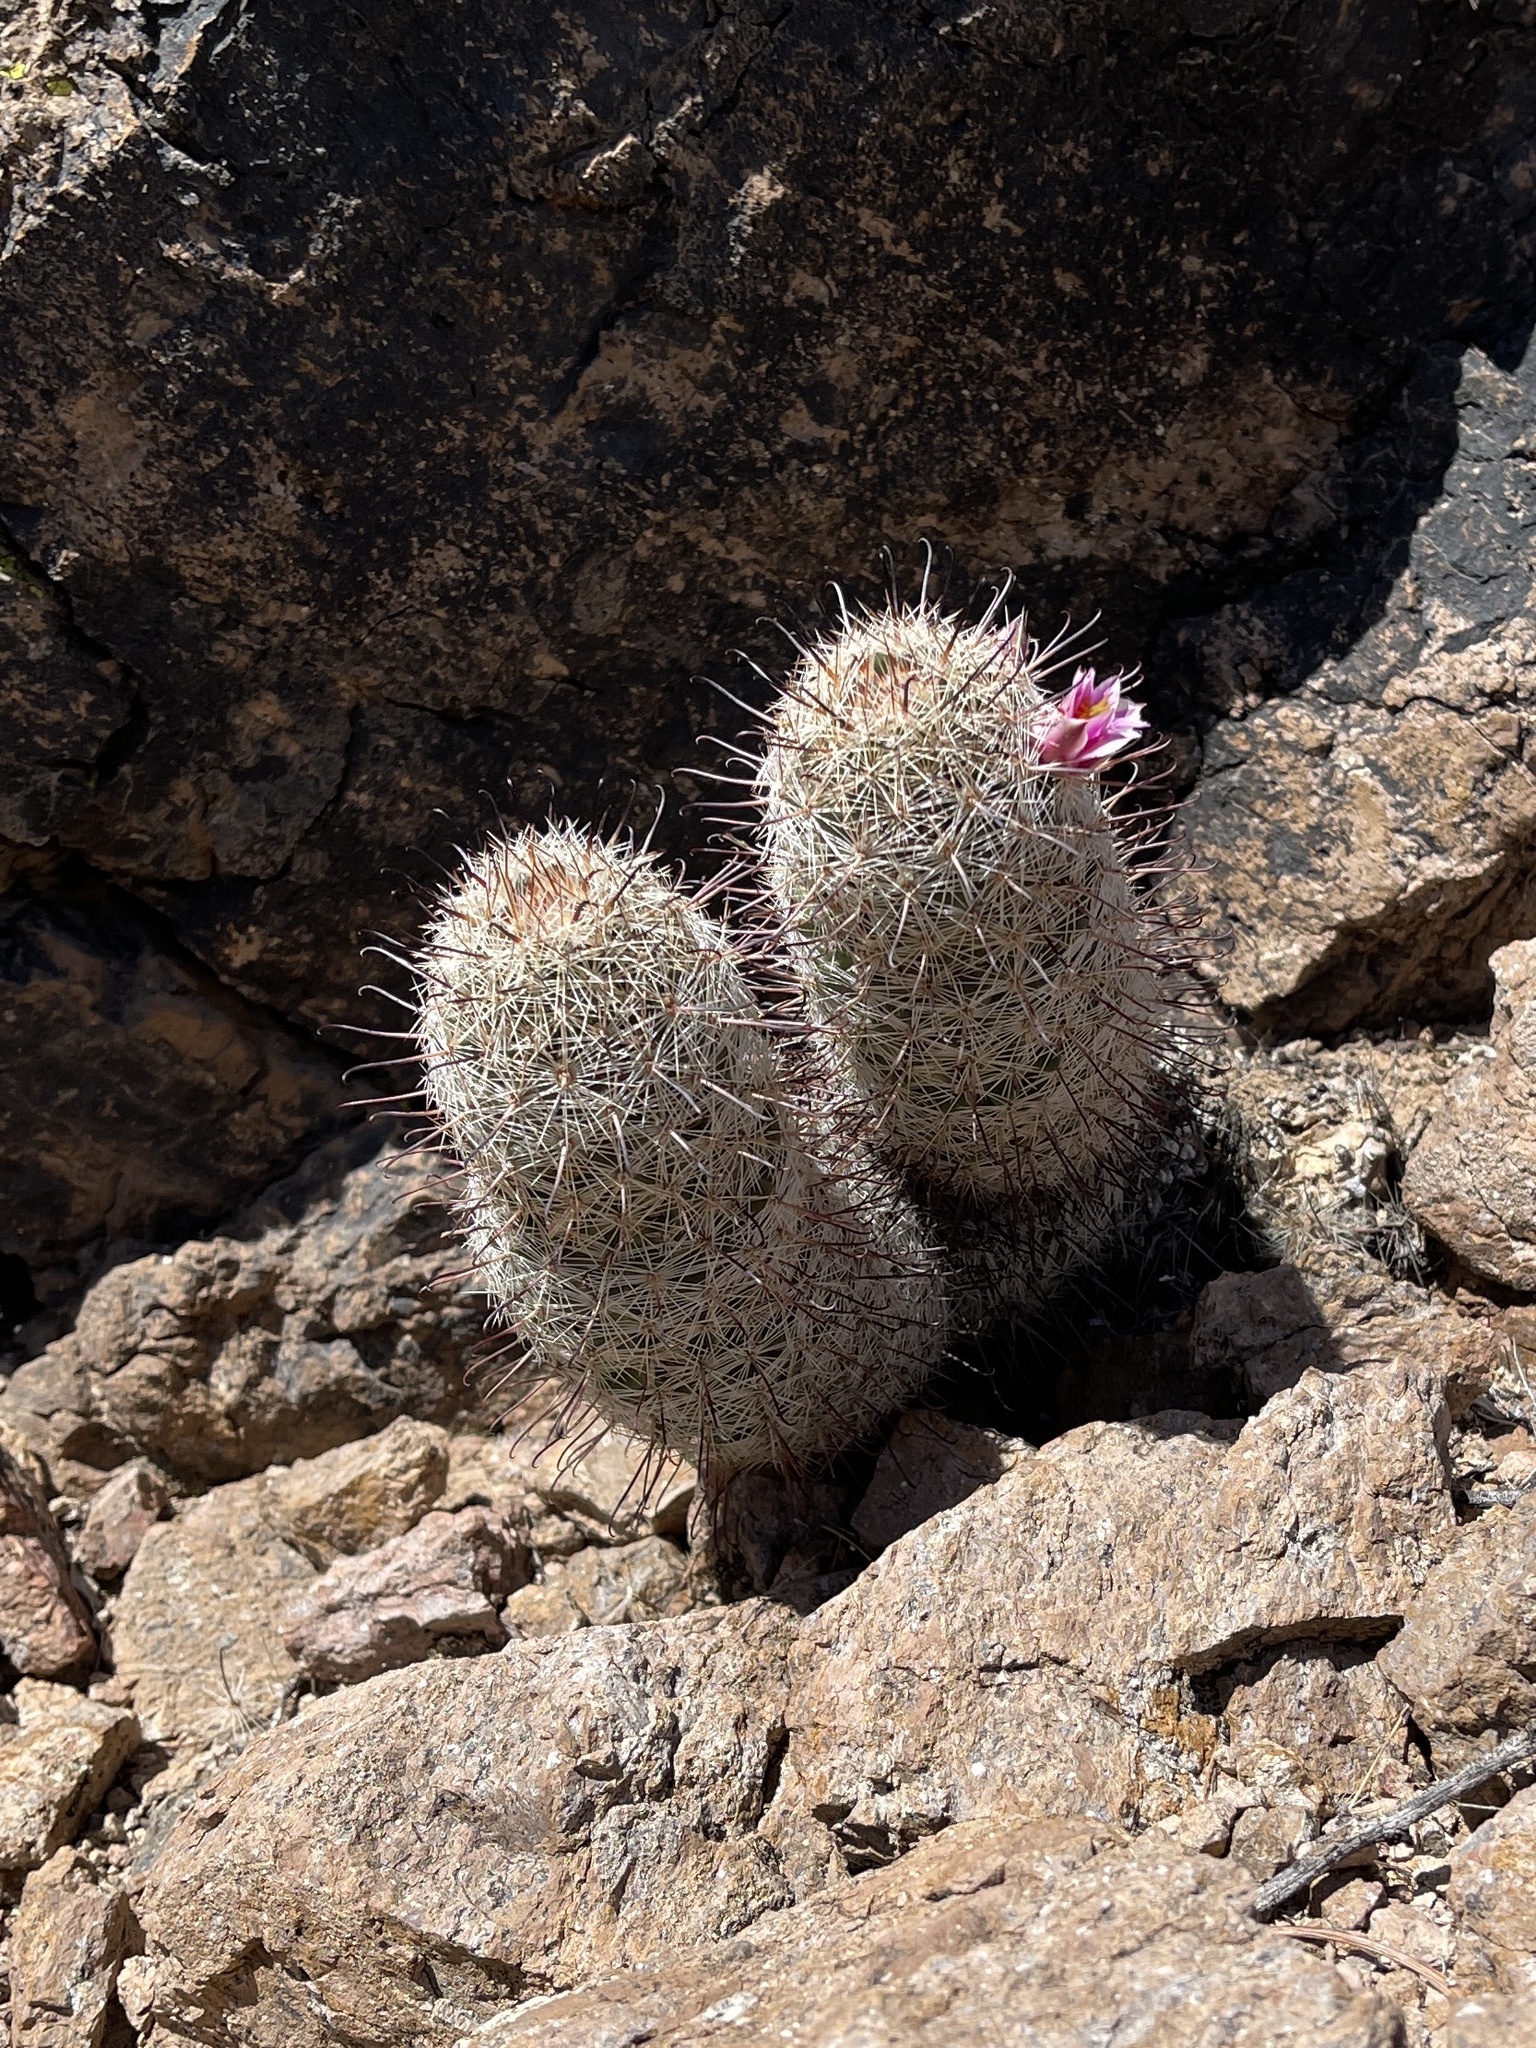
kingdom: Plantae
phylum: Tracheophyta
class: Magnoliopsida
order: Caryophyllales
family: Cactaceae
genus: Cochemiea
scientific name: Cochemiea grahamii
